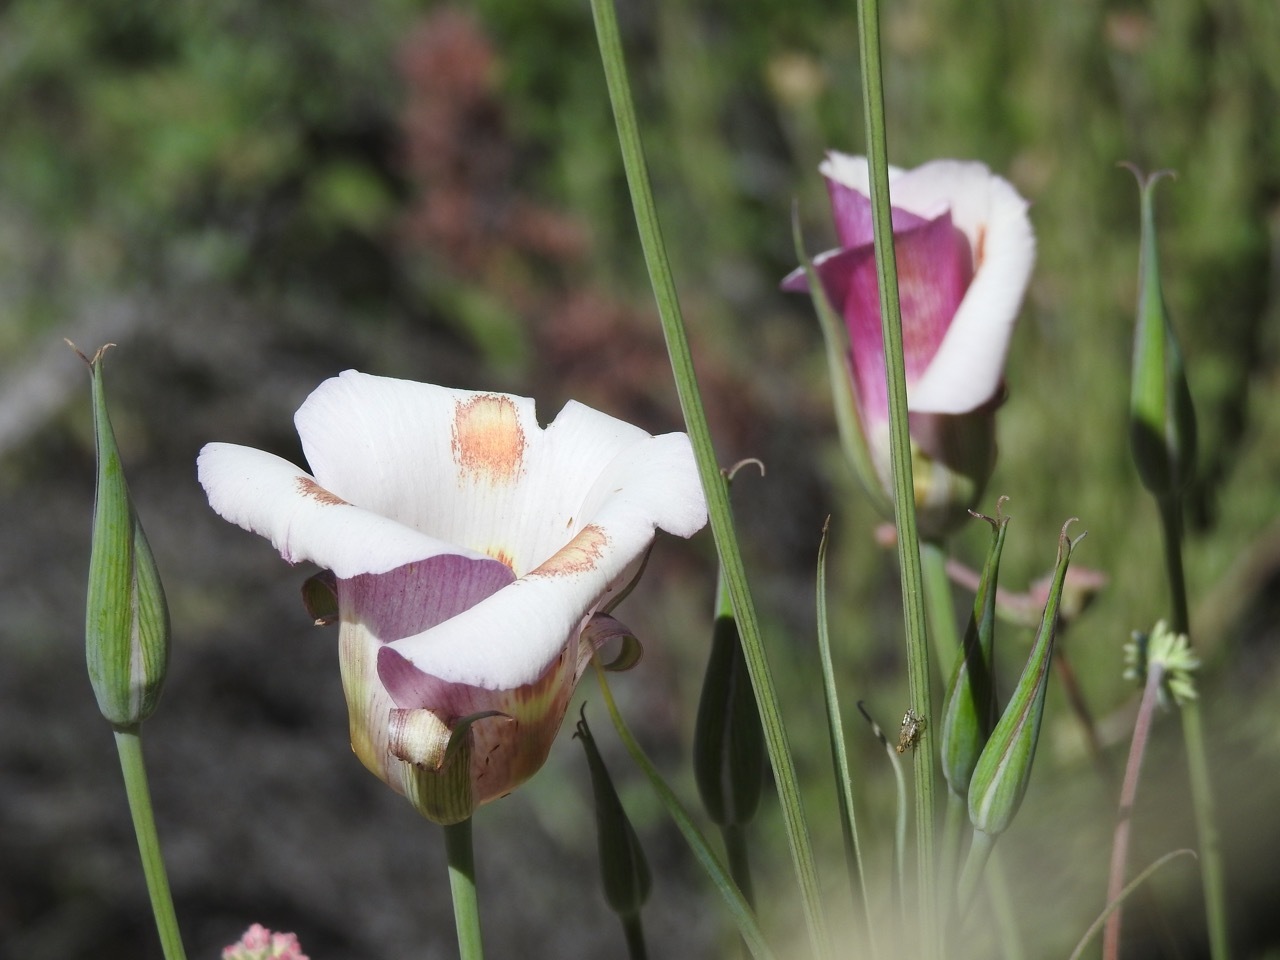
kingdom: Plantae
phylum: Tracheophyta
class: Liliopsida
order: Liliales
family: Liliaceae
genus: Calochortus
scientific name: Calochortus venustus
